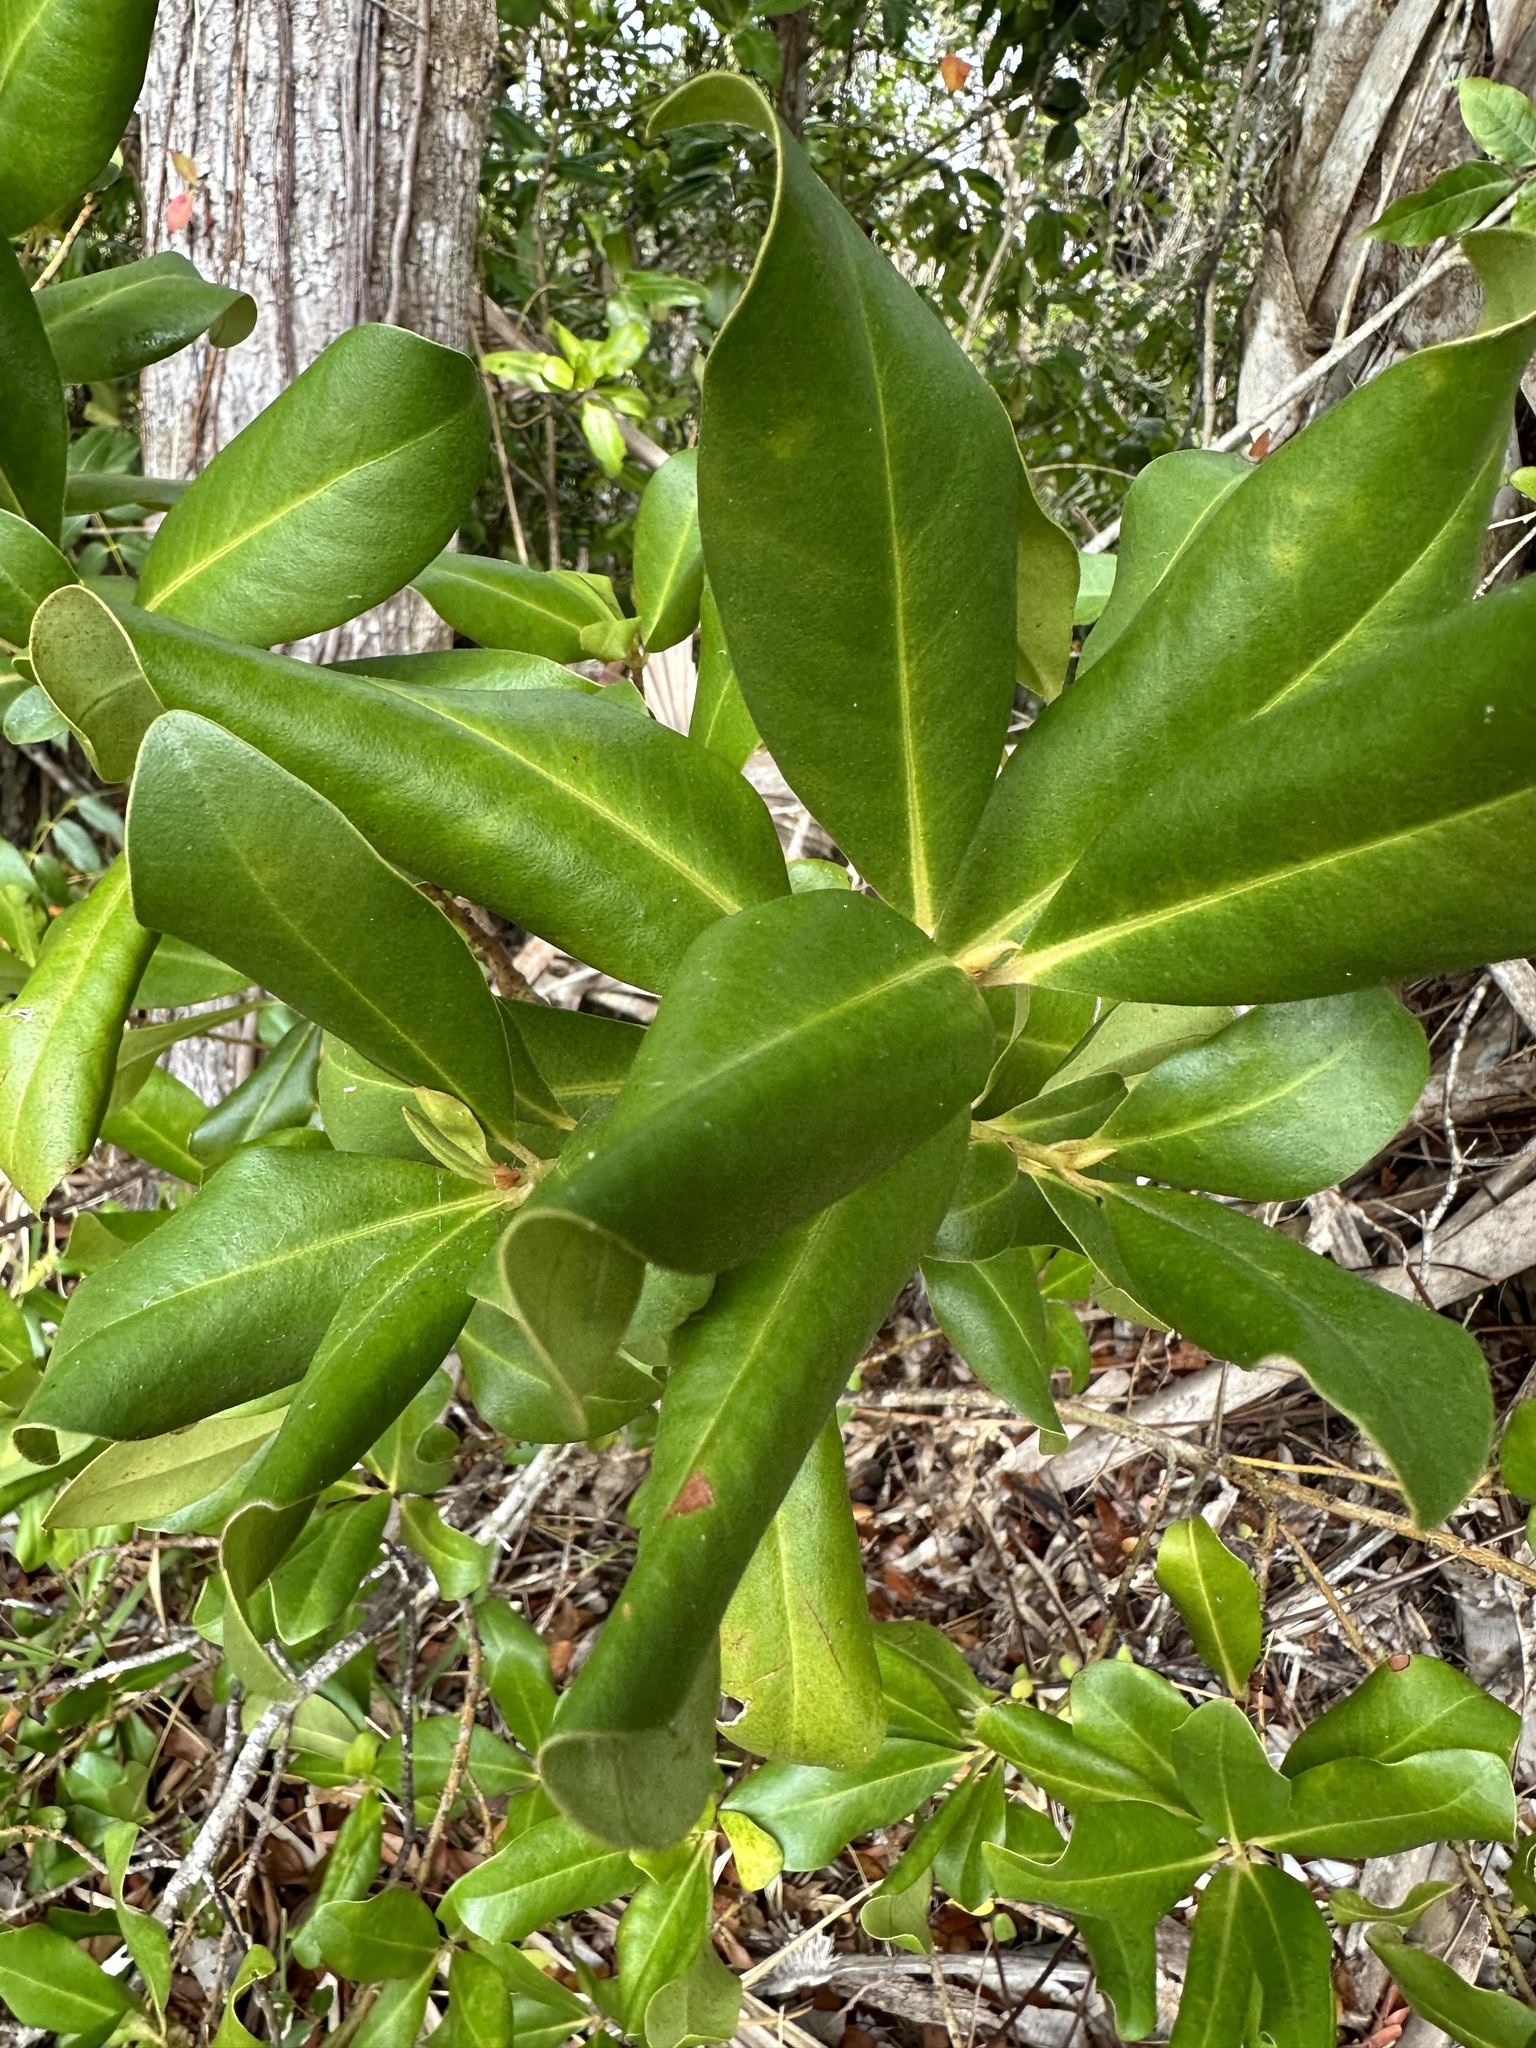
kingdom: Plantae
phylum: Tracheophyta
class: Magnoliopsida
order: Ericales
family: Primulaceae
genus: Myrsine
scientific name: Myrsine floridana
